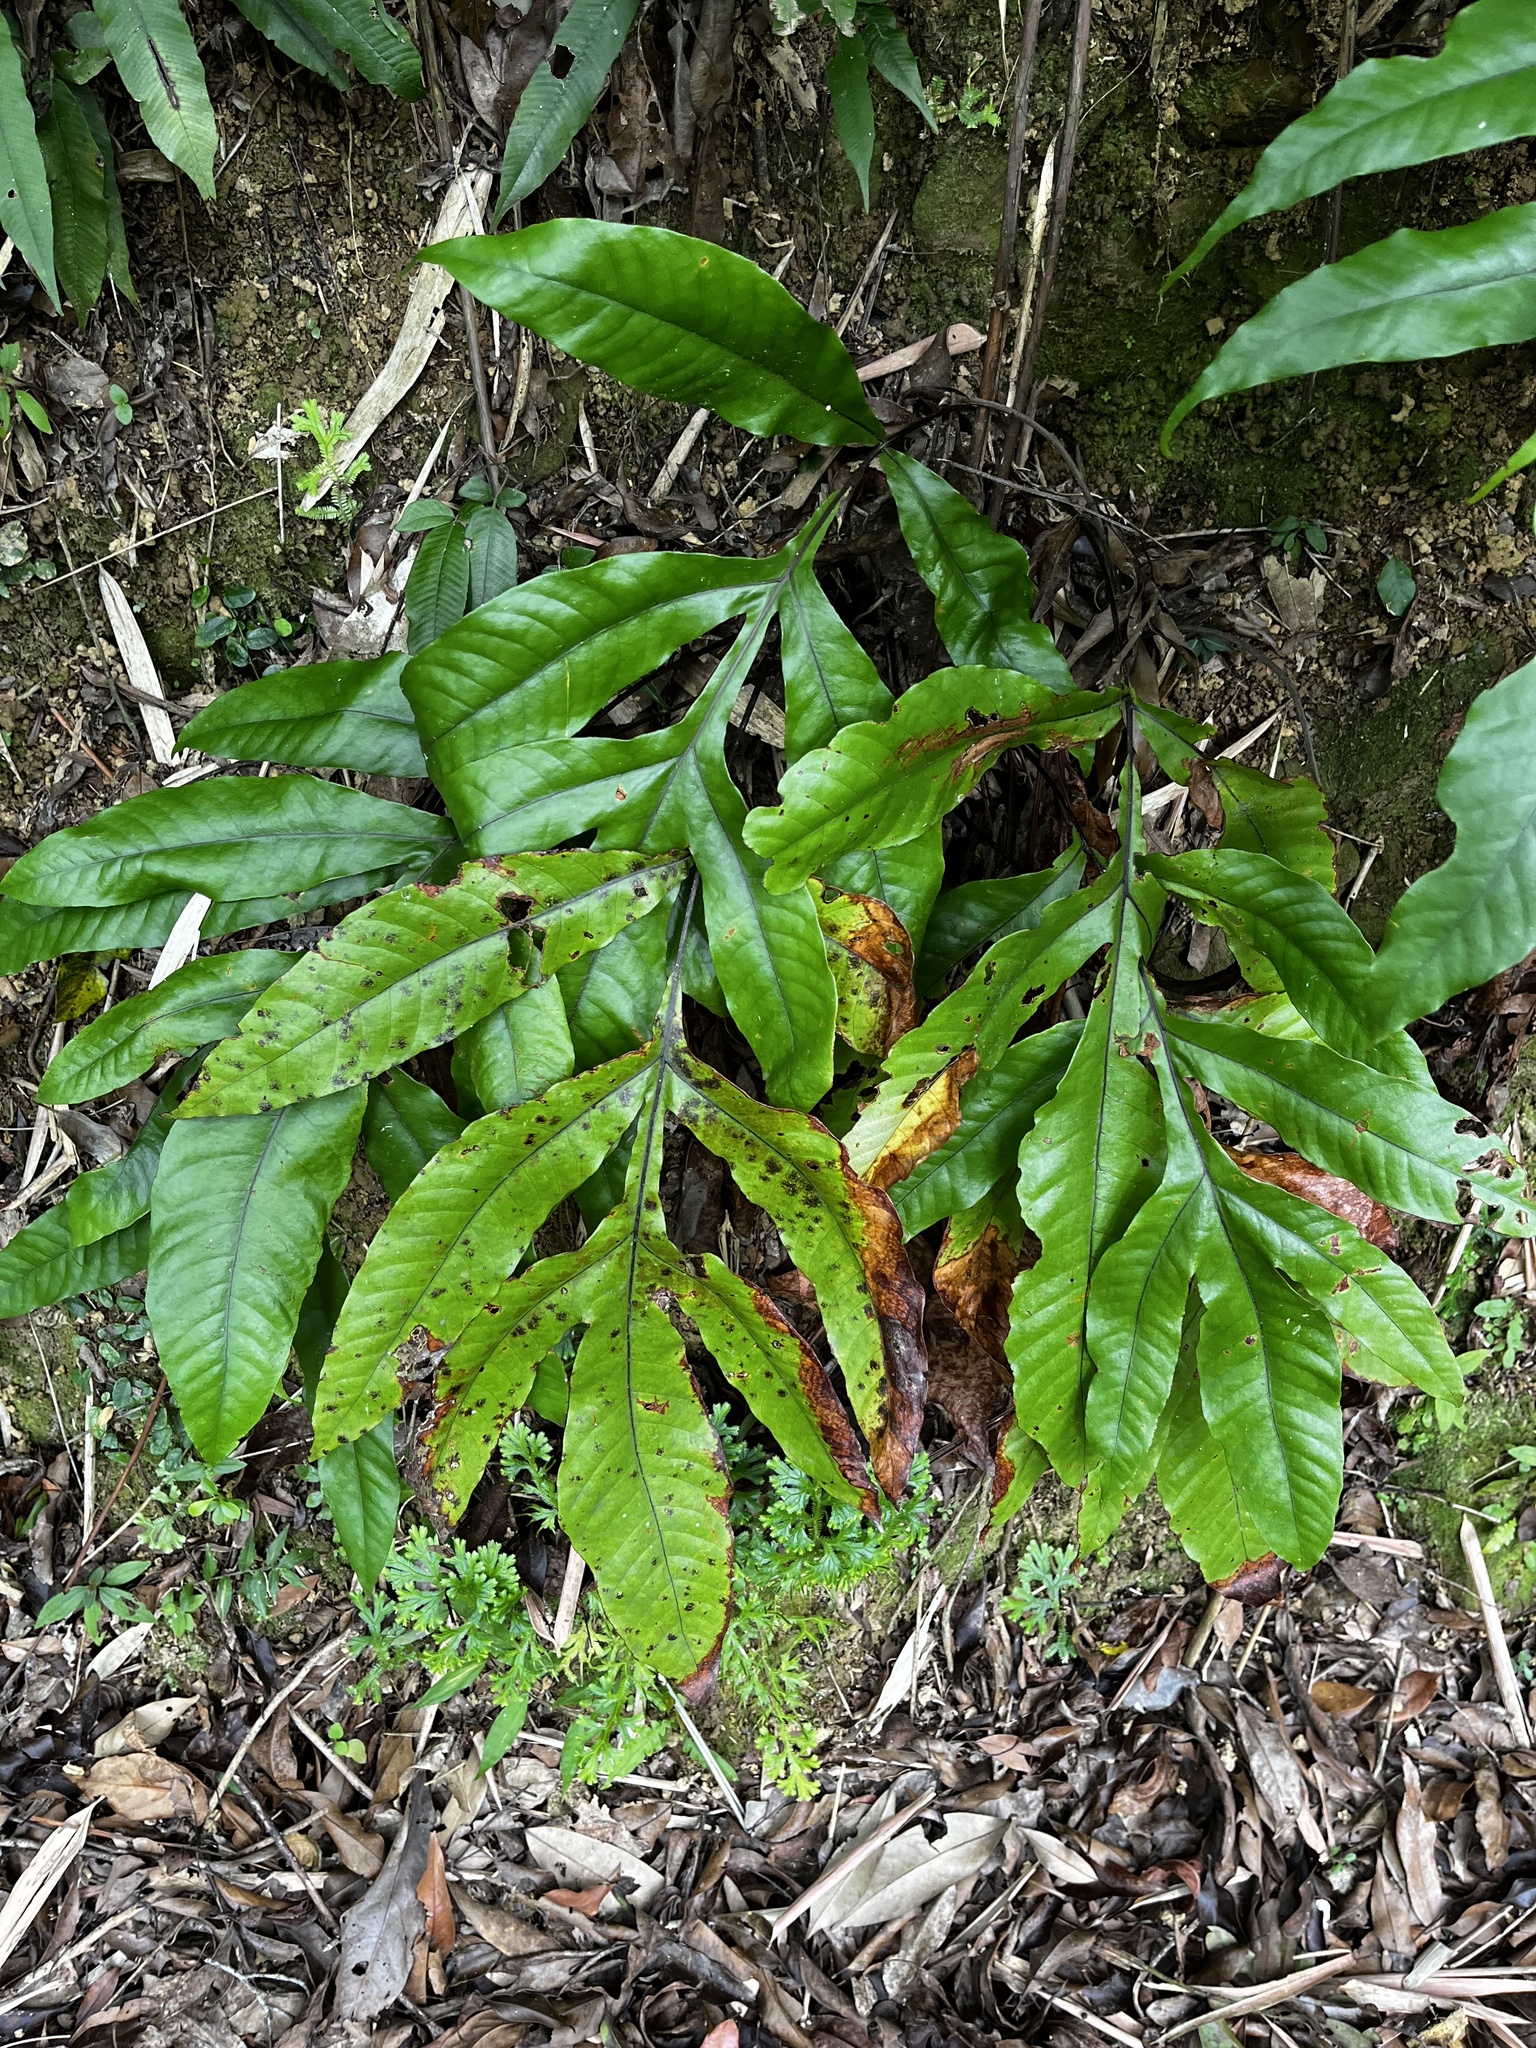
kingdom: Plantae
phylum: Tracheophyta
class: Polypodiopsida
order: Polypodiales
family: Tectariaceae
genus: Tectaria
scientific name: Tectaria harlandii
